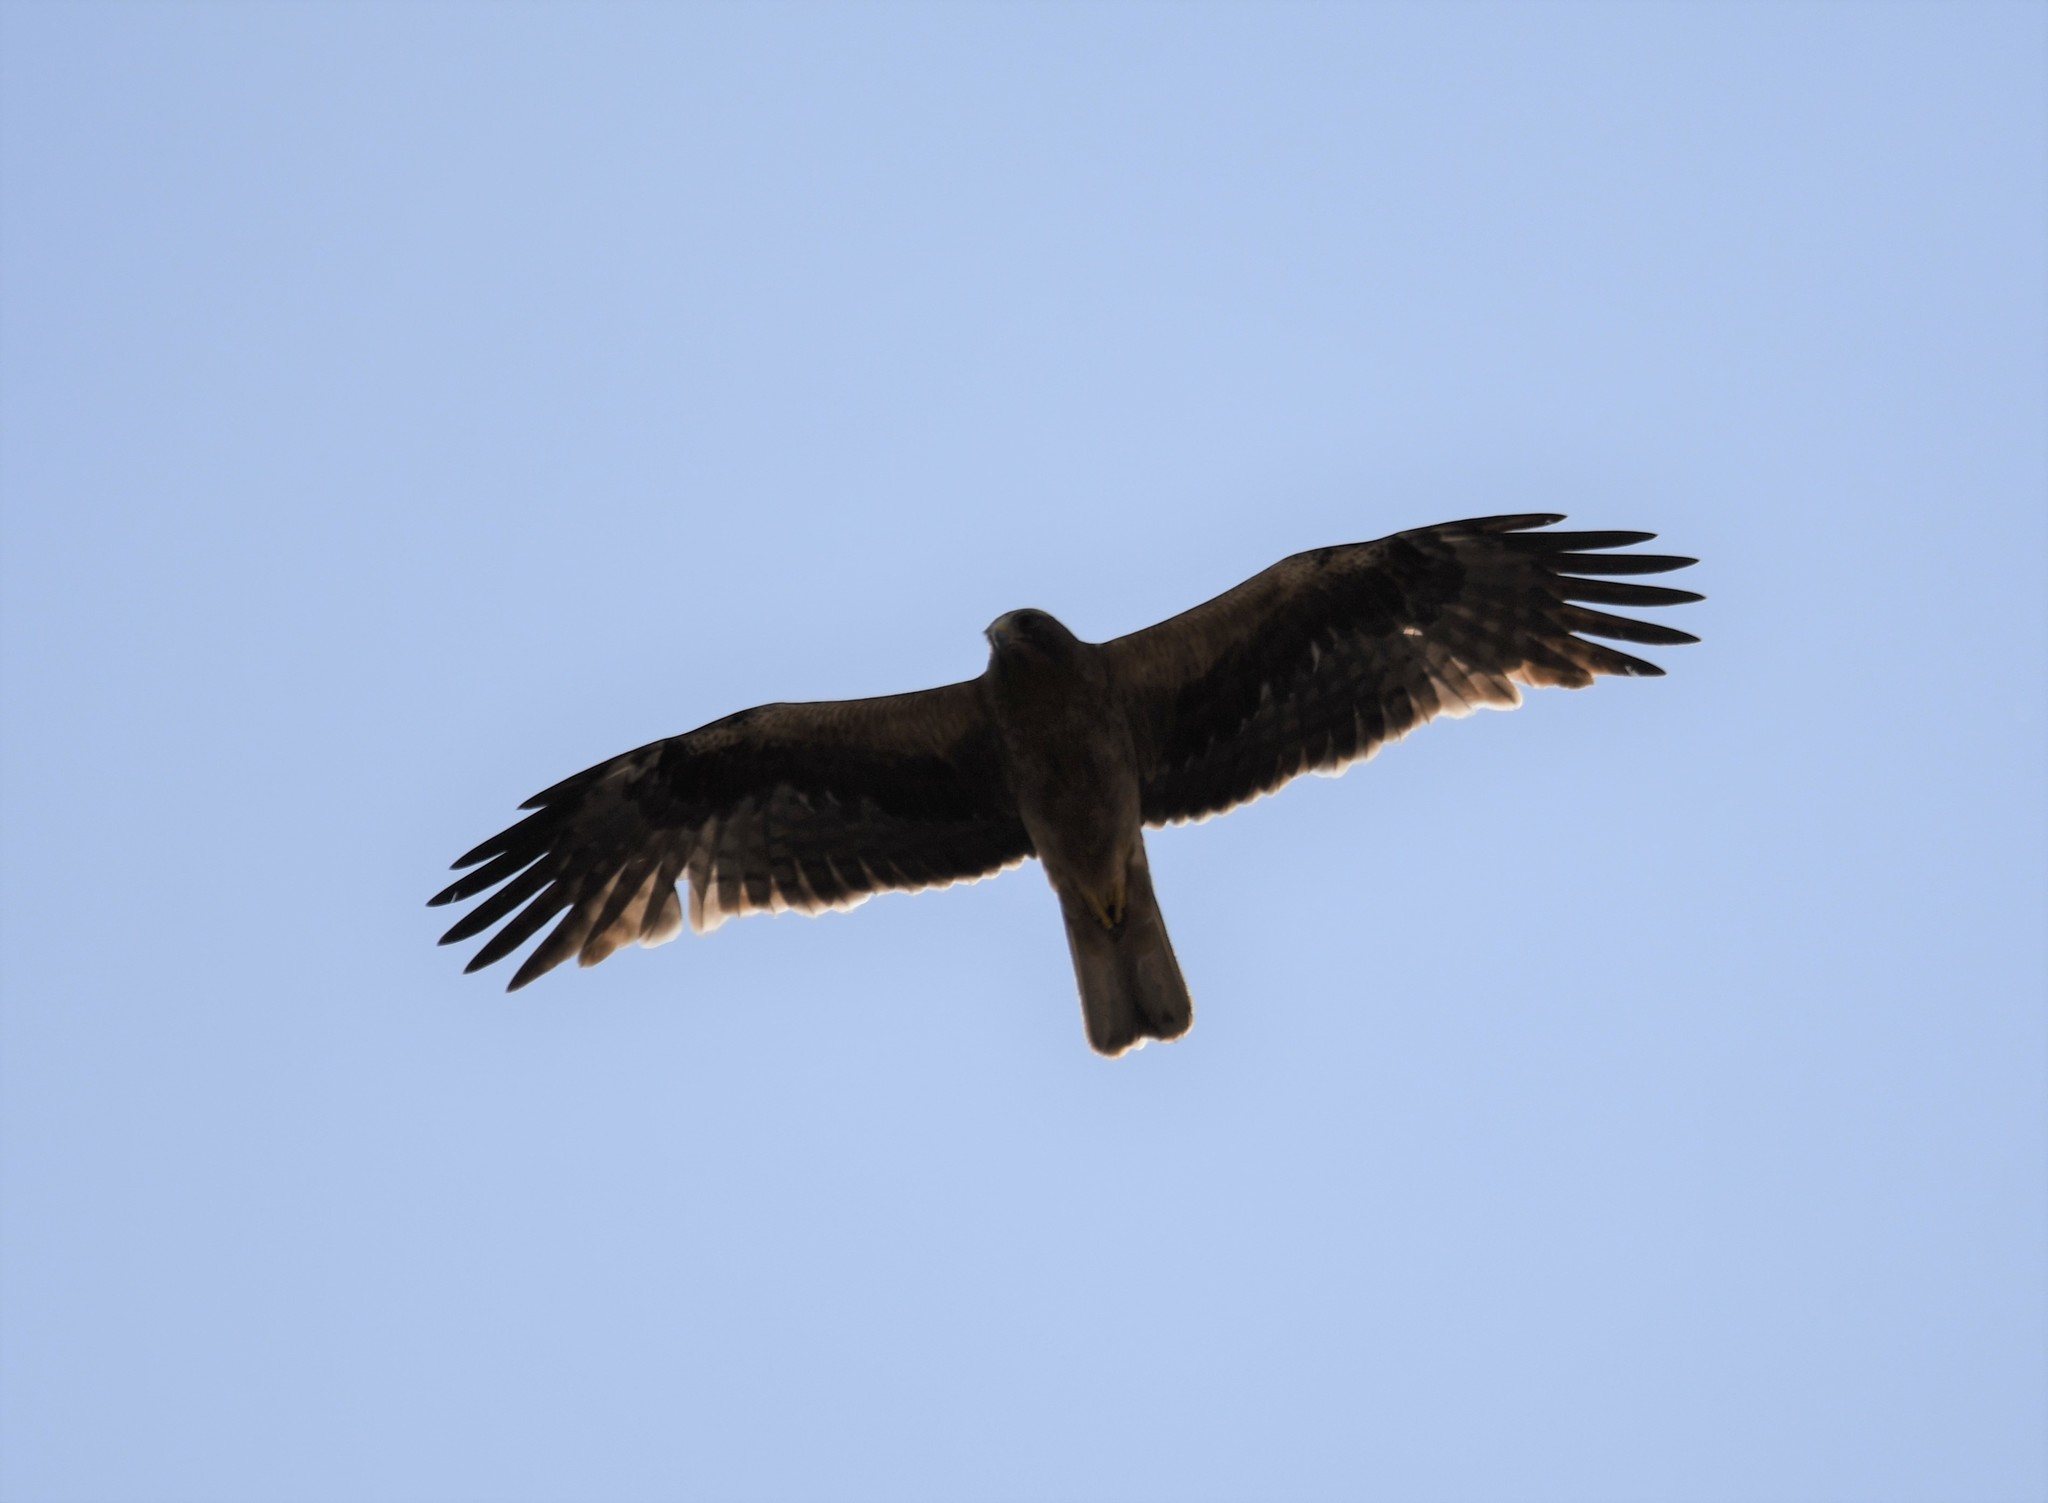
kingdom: Animalia
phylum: Chordata
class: Aves
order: Accipitriformes
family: Accipitridae
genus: Hieraaetus
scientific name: Hieraaetus pennatus
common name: Booted eagle
